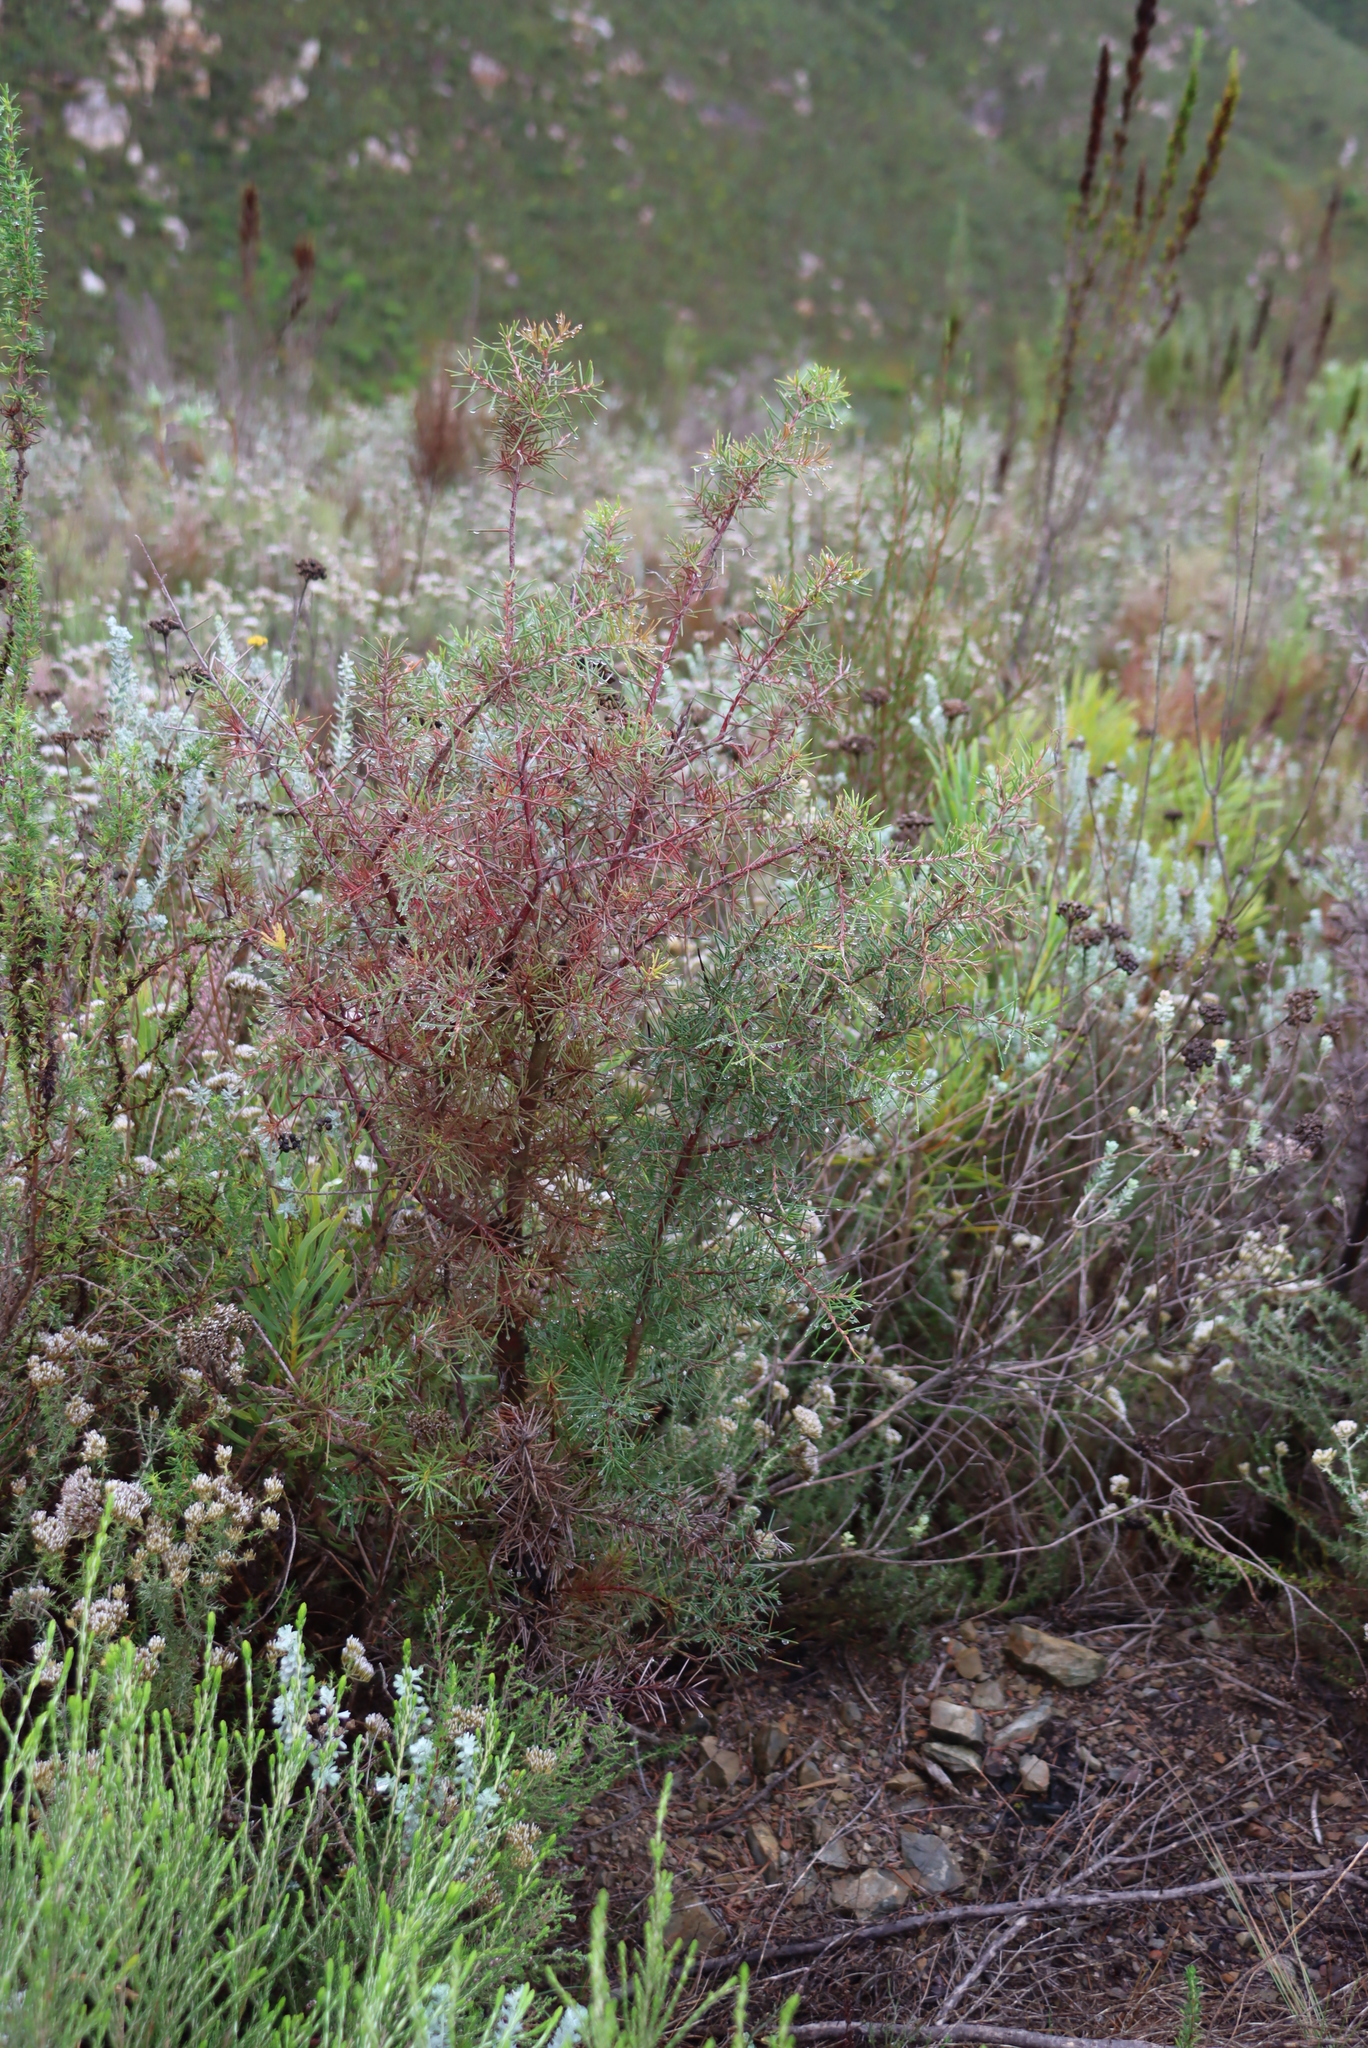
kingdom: Plantae
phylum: Tracheophyta
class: Magnoliopsida
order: Proteales
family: Proteaceae
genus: Hakea
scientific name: Hakea sericea
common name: Needle bush
